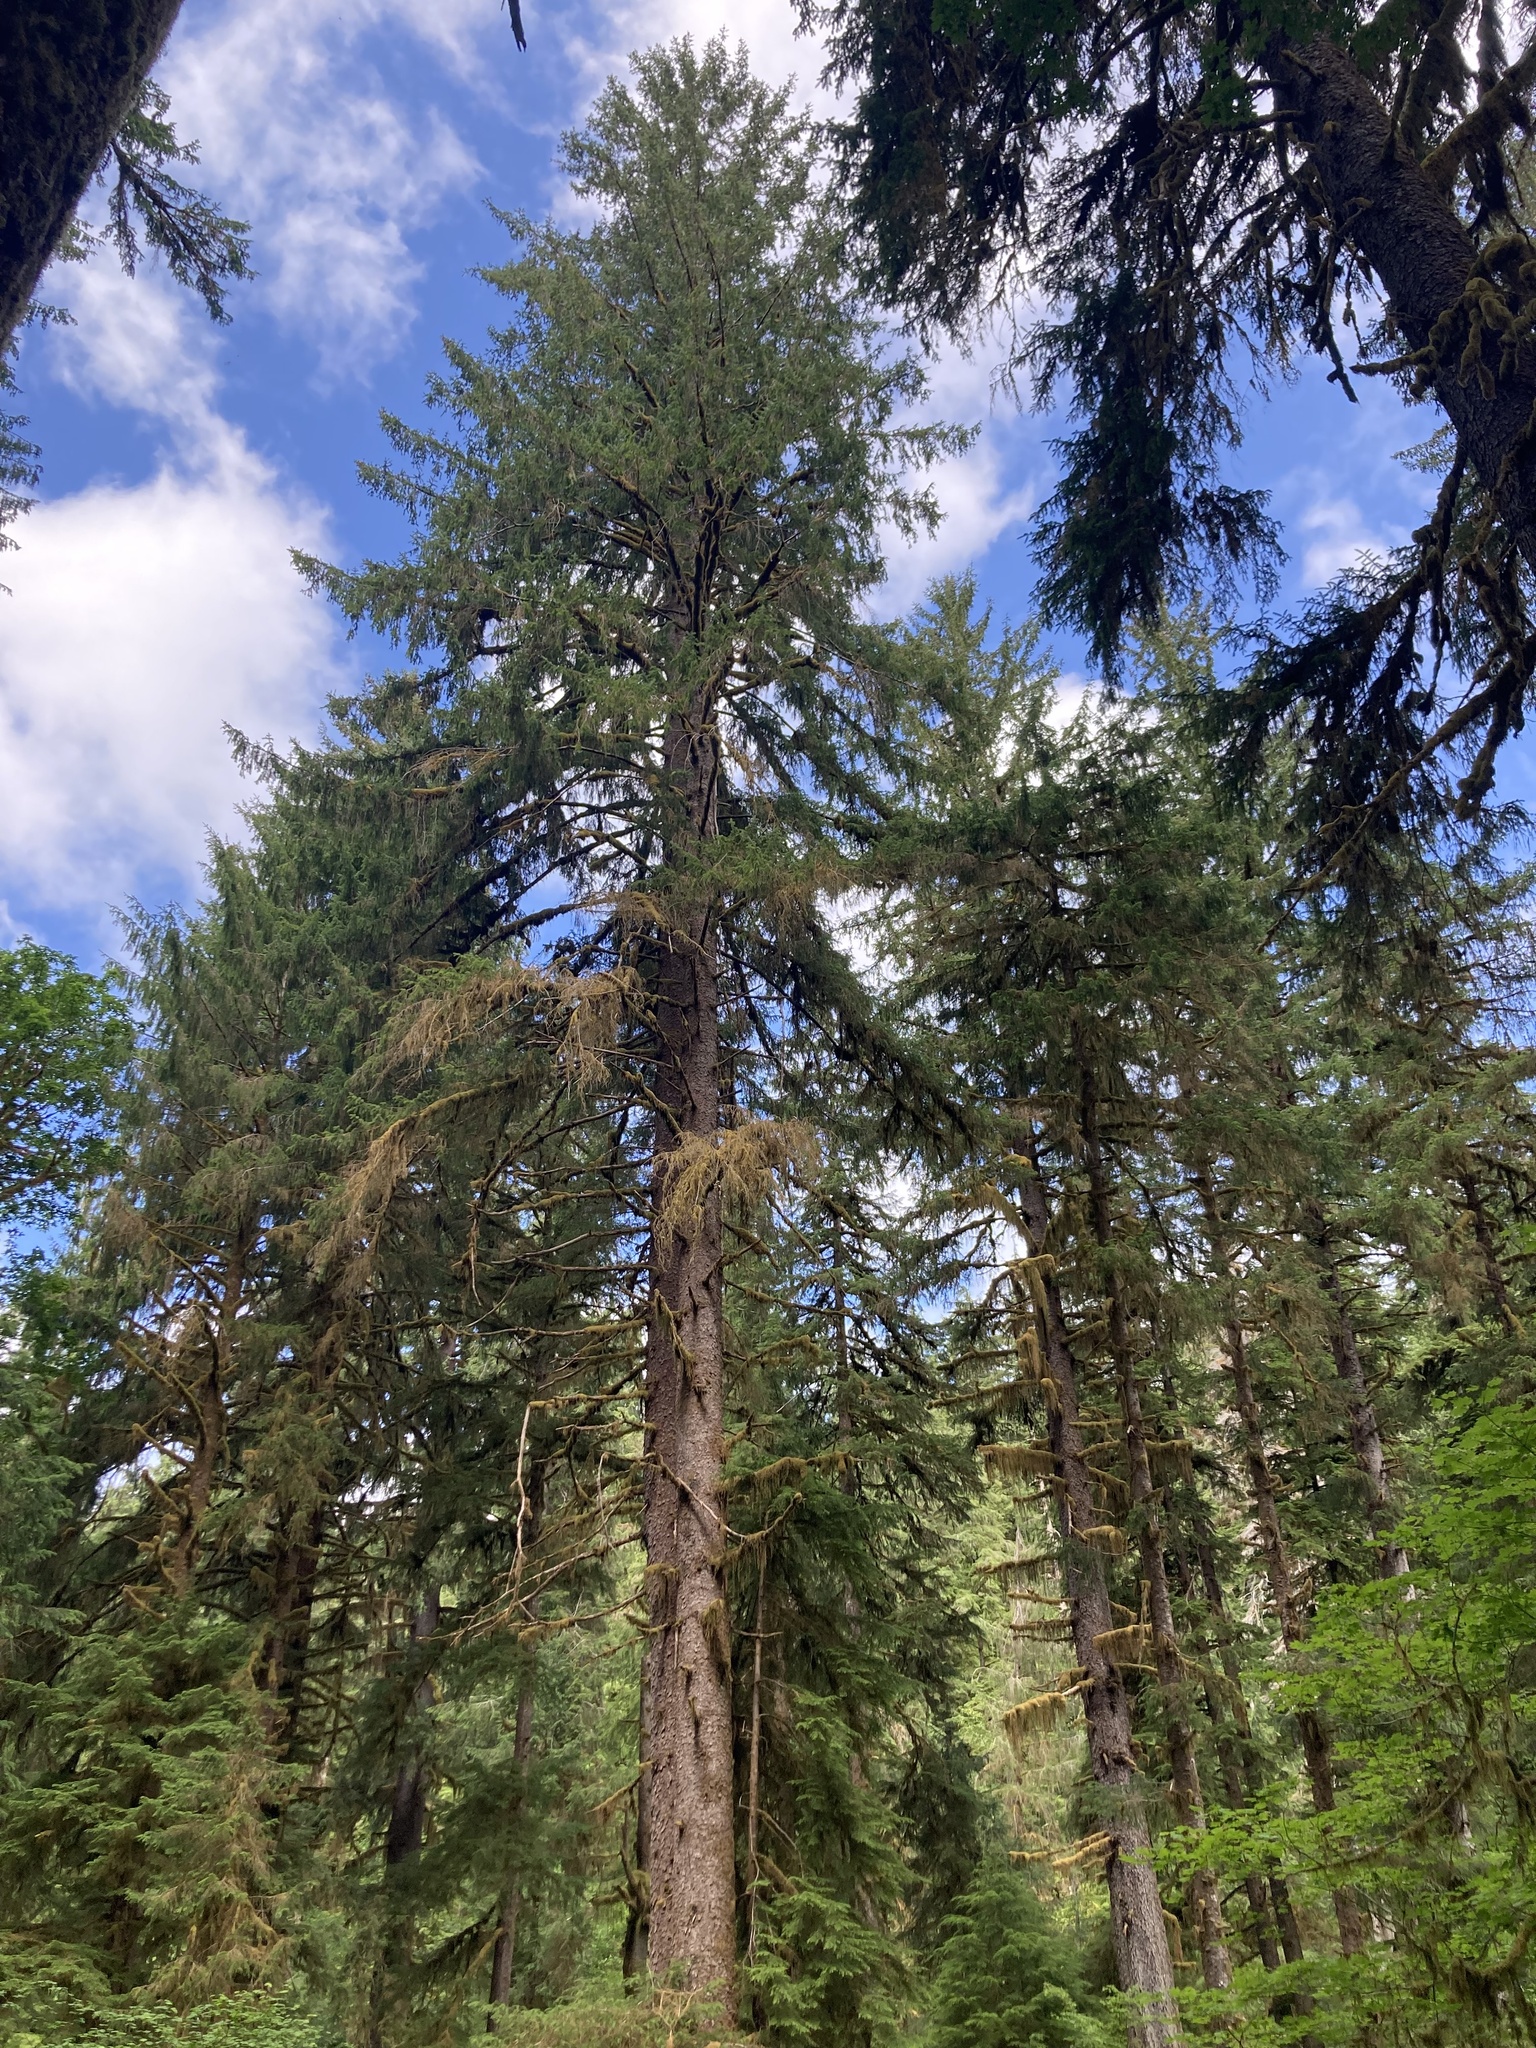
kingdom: Plantae
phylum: Tracheophyta
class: Pinopsida
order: Pinales
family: Pinaceae
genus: Picea
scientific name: Picea sitchensis
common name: Sitka spruce
